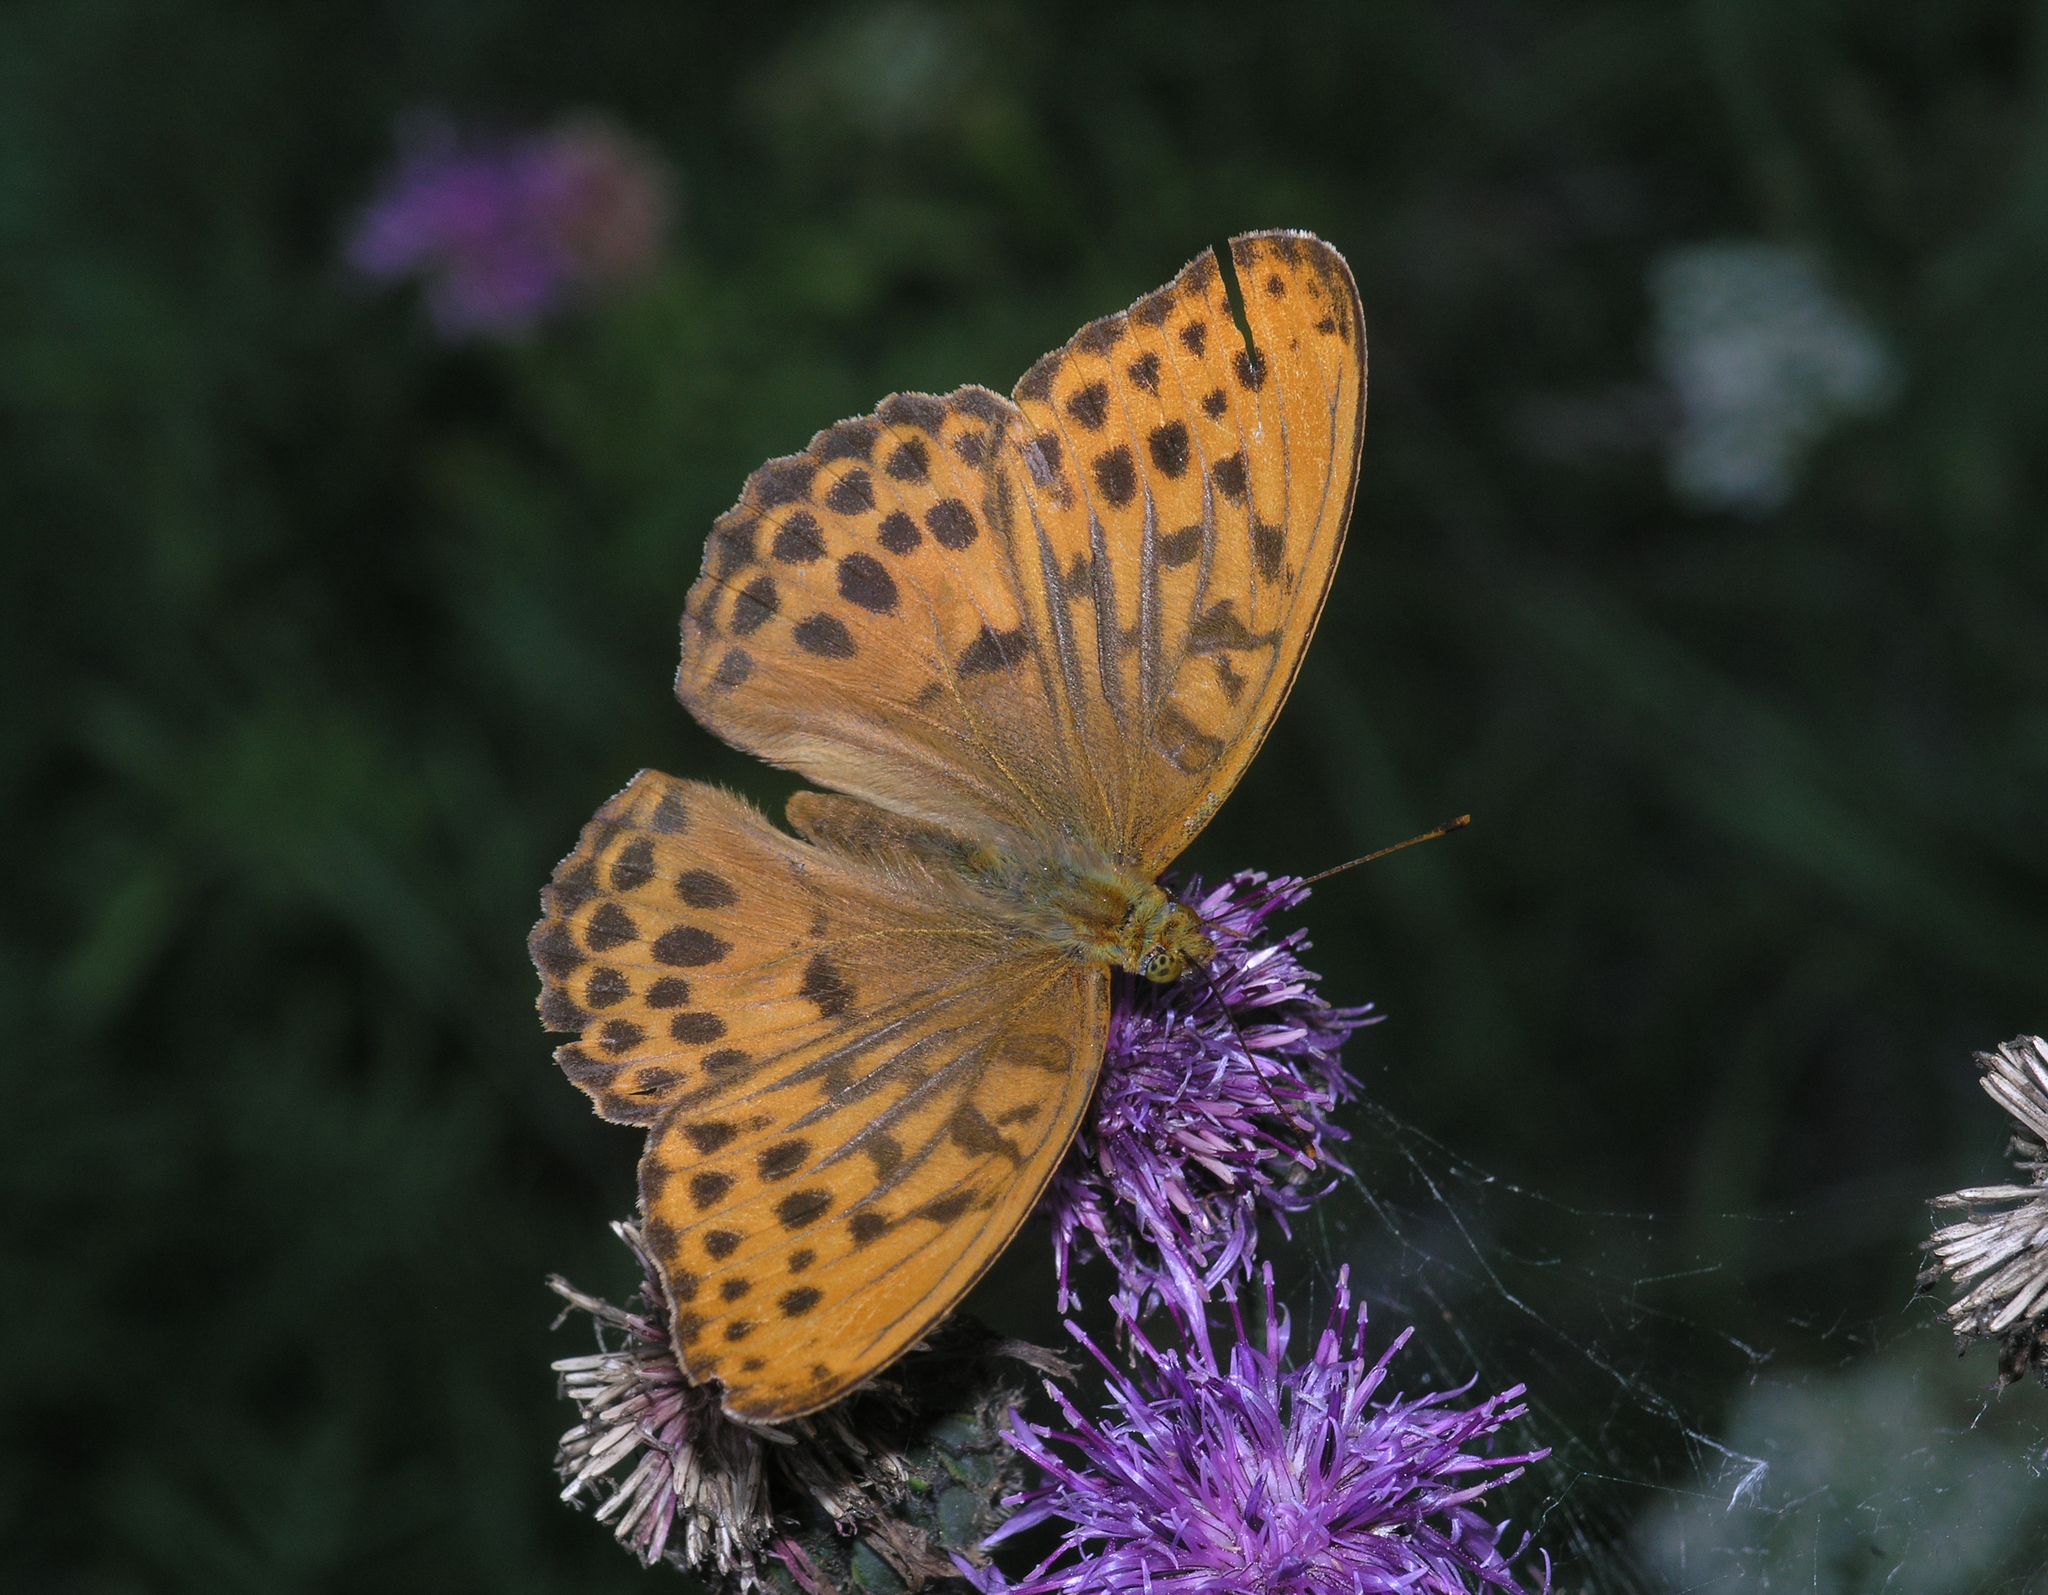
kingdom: Animalia
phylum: Arthropoda
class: Insecta
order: Lepidoptera
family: Nymphalidae
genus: Damora
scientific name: Damora sagana
